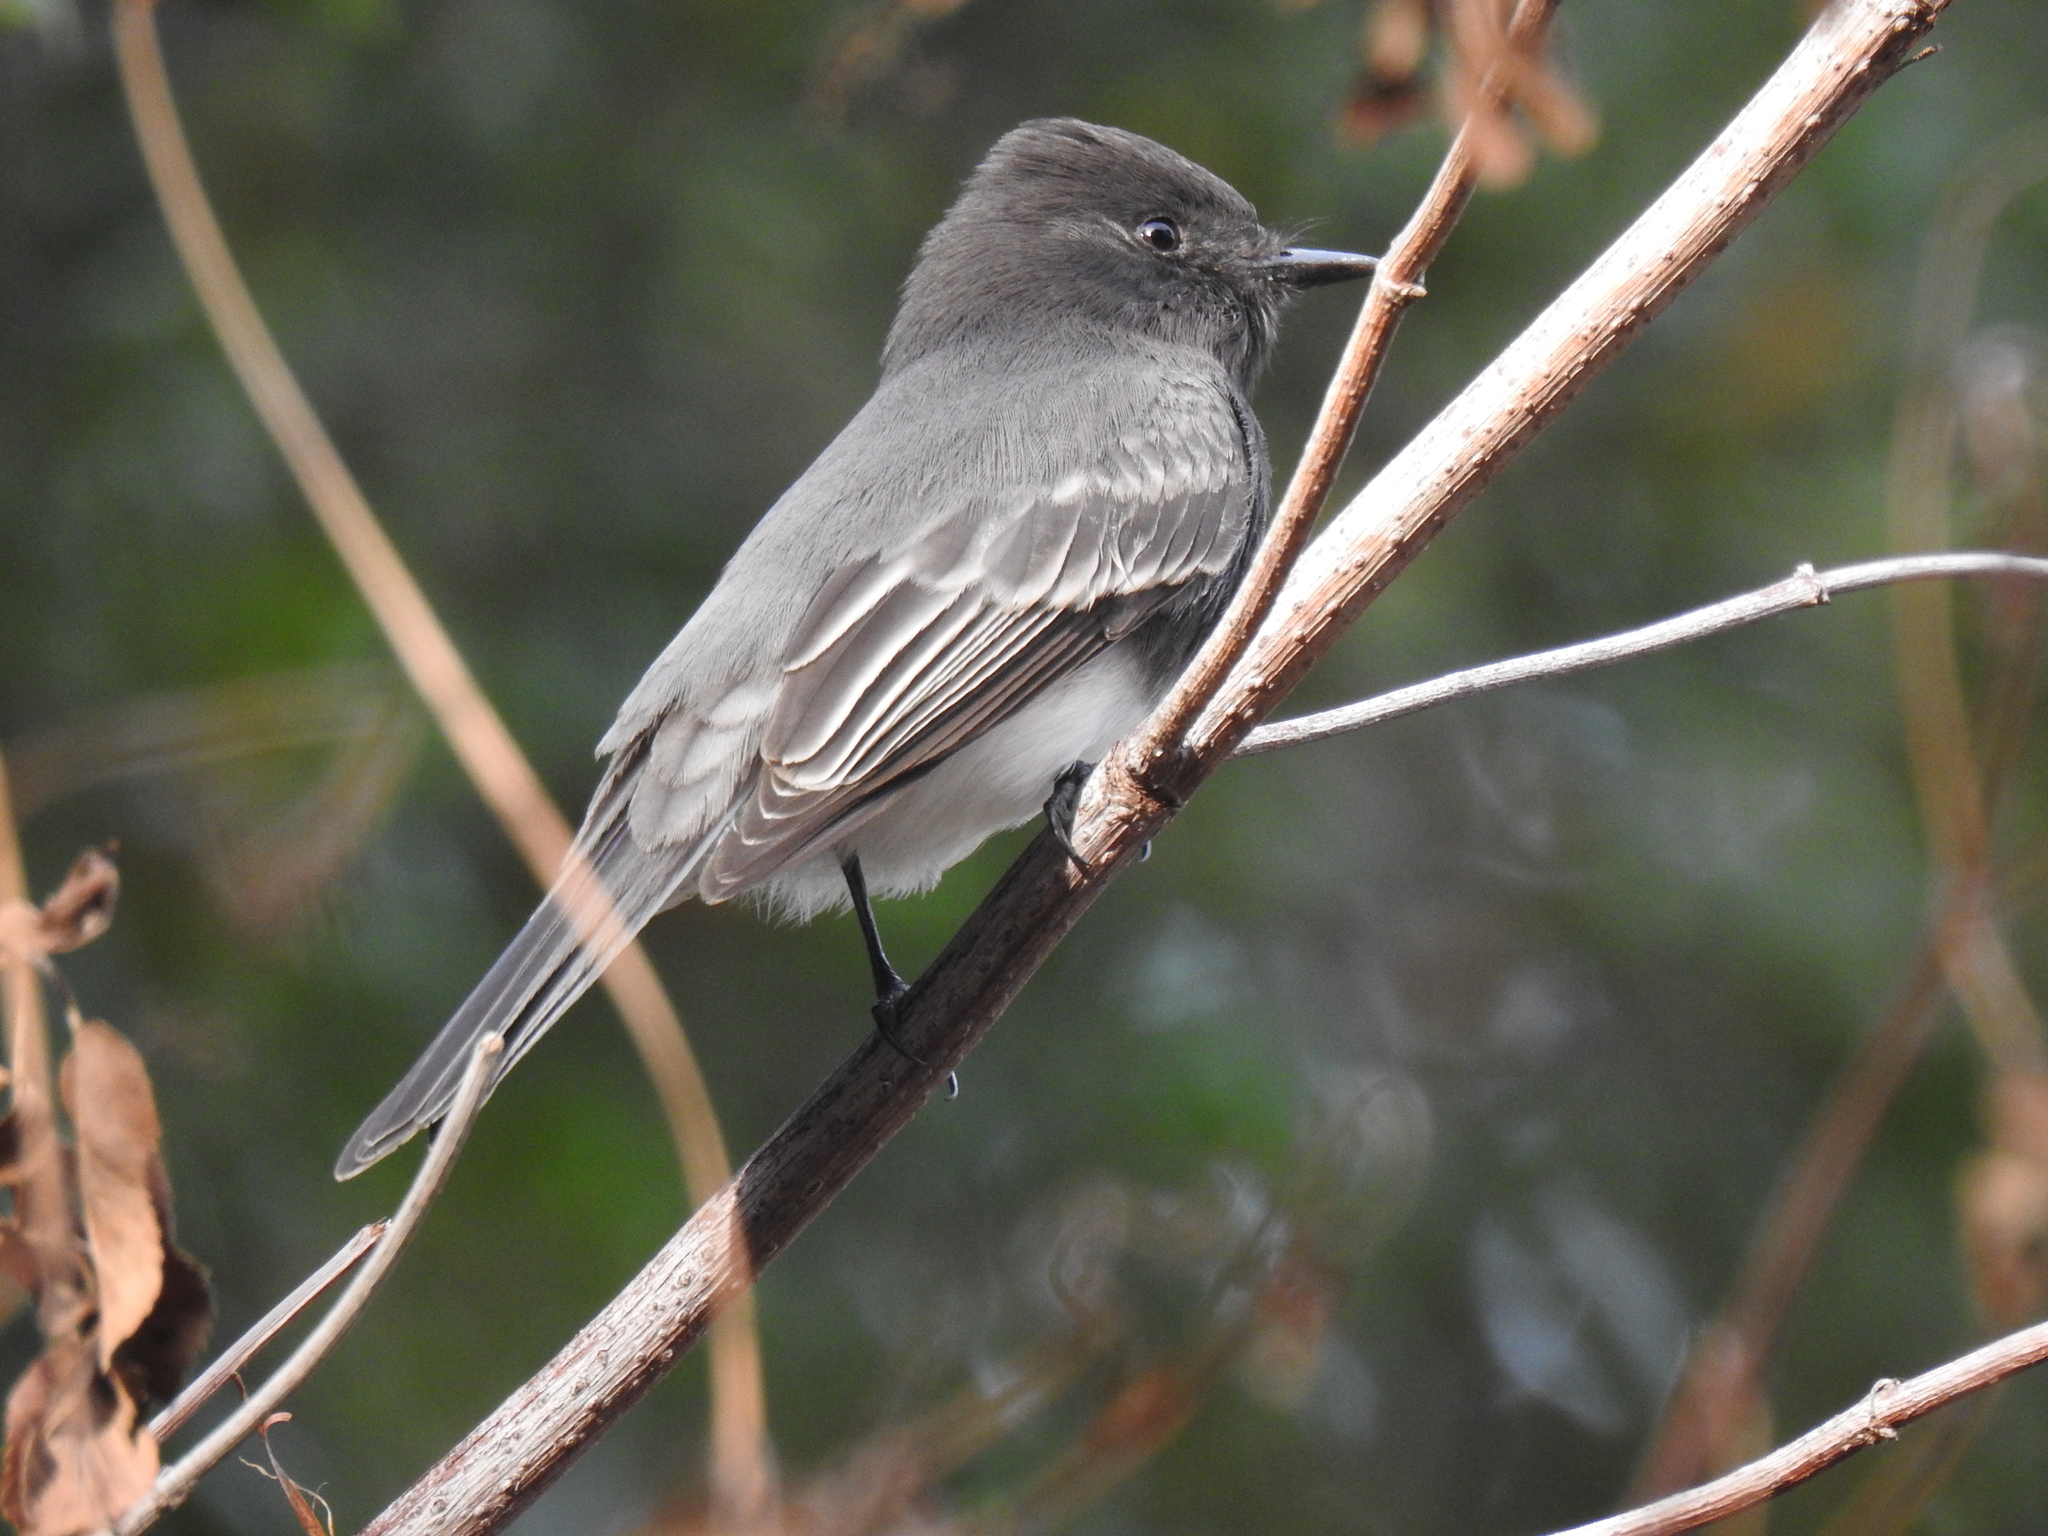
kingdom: Animalia
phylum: Chordata
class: Aves
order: Passeriformes
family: Tyrannidae
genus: Sayornis
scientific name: Sayornis nigricans
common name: Black phoebe
